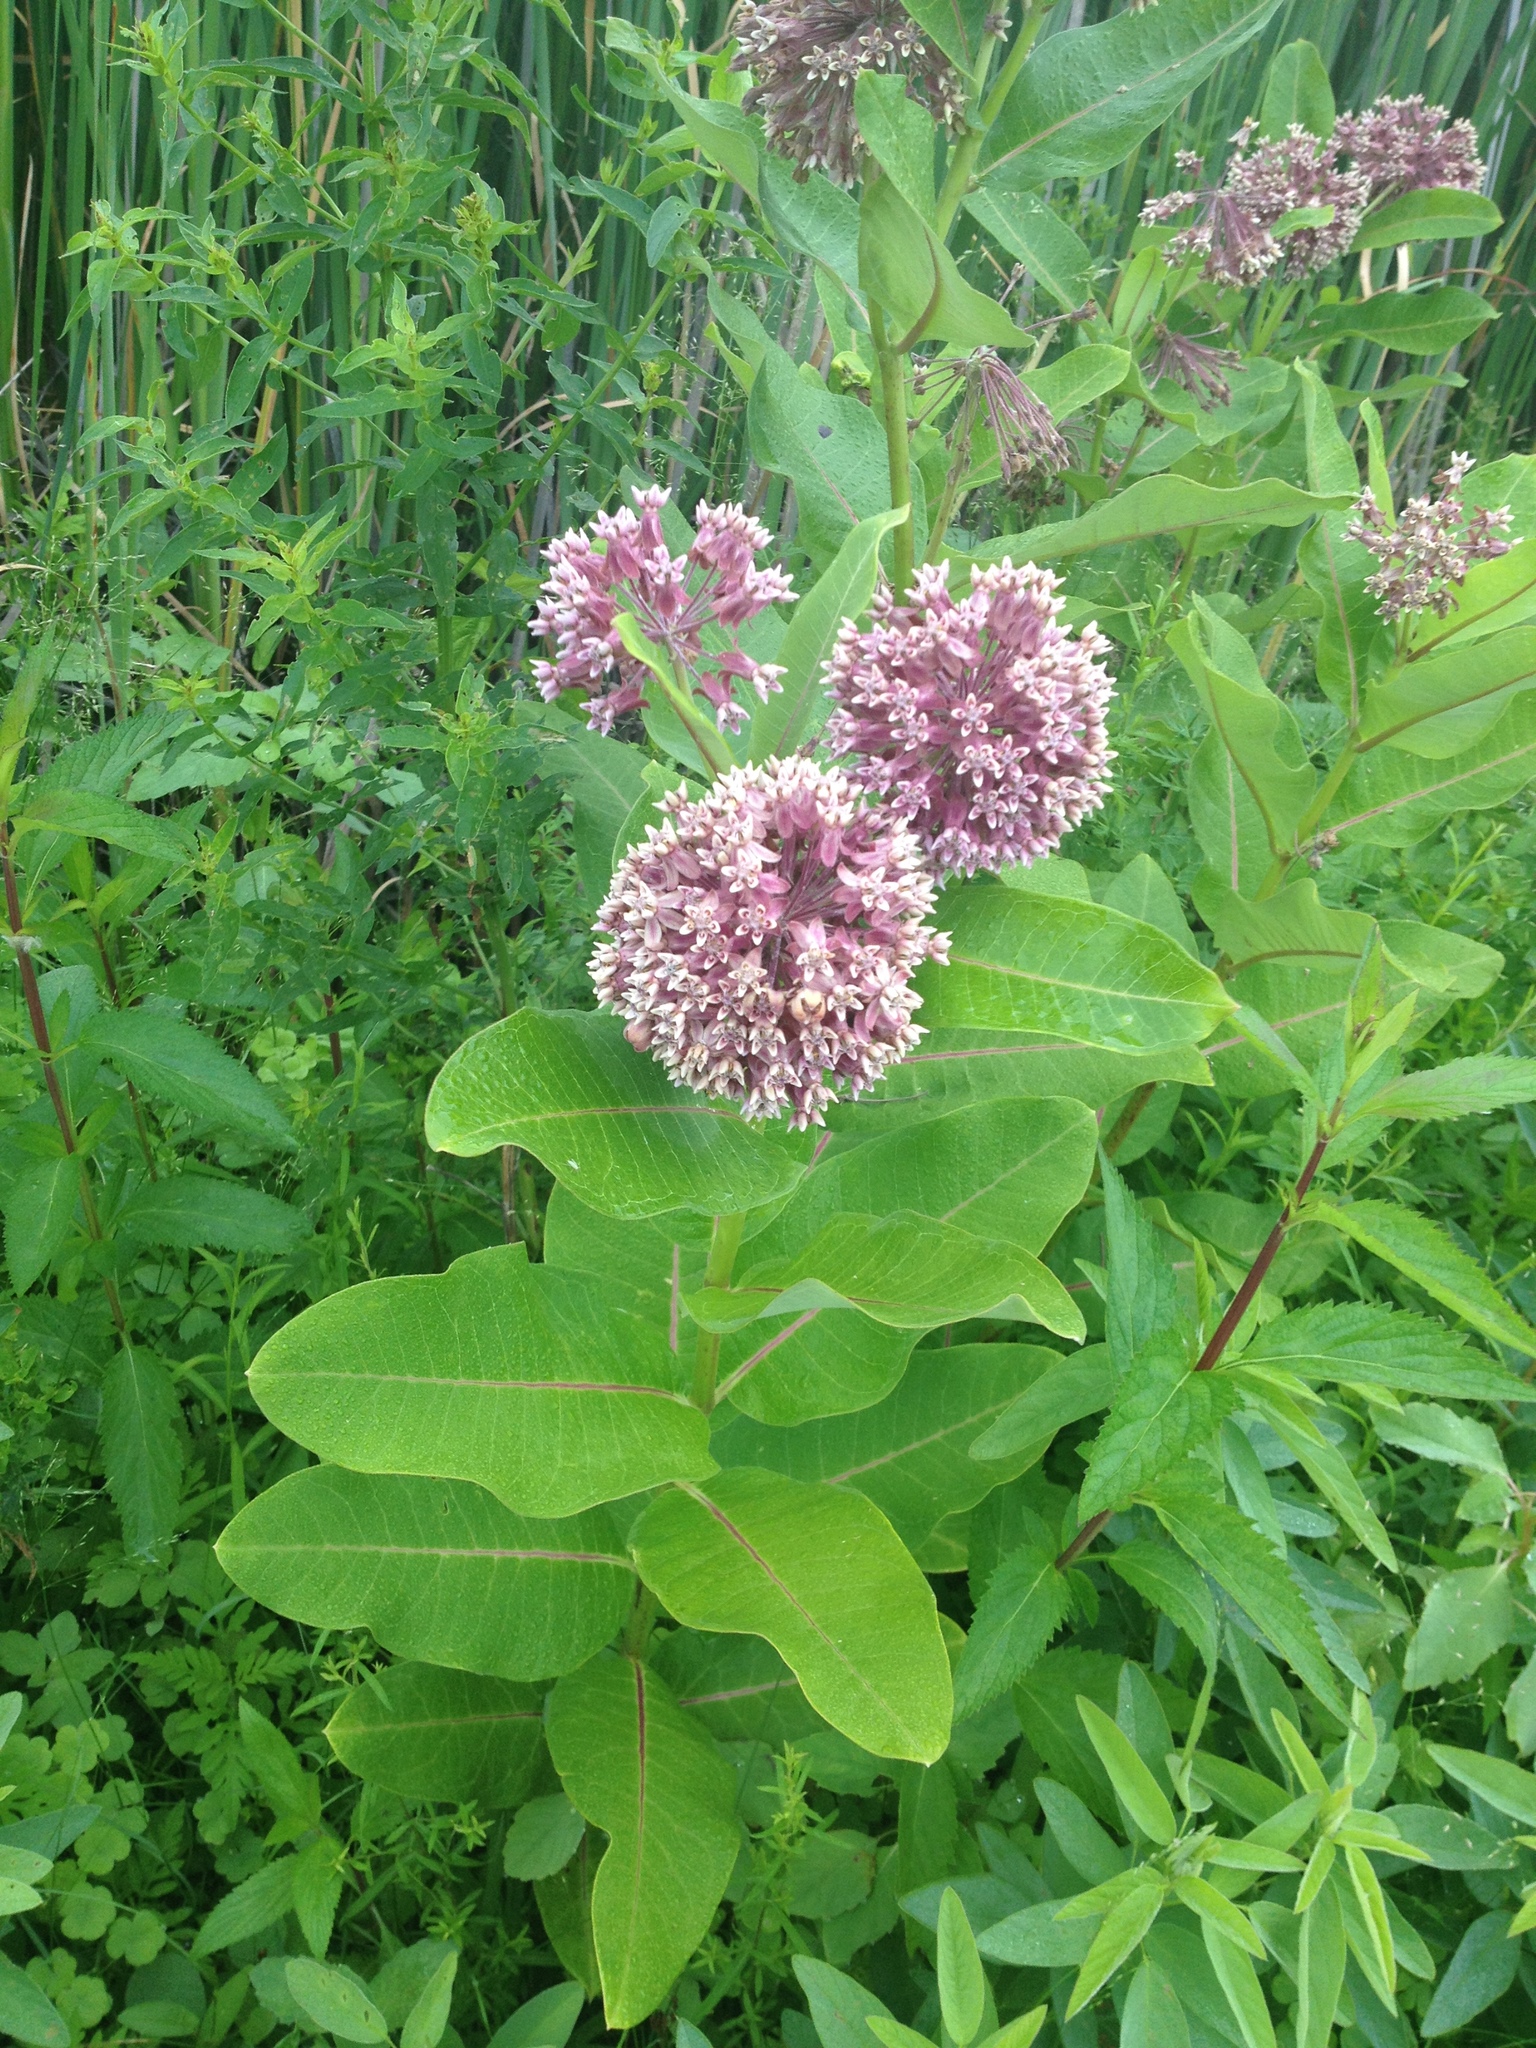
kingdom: Plantae
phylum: Tracheophyta
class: Magnoliopsida
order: Gentianales
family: Apocynaceae
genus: Asclepias
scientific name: Asclepias syriaca
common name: Common milkweed
